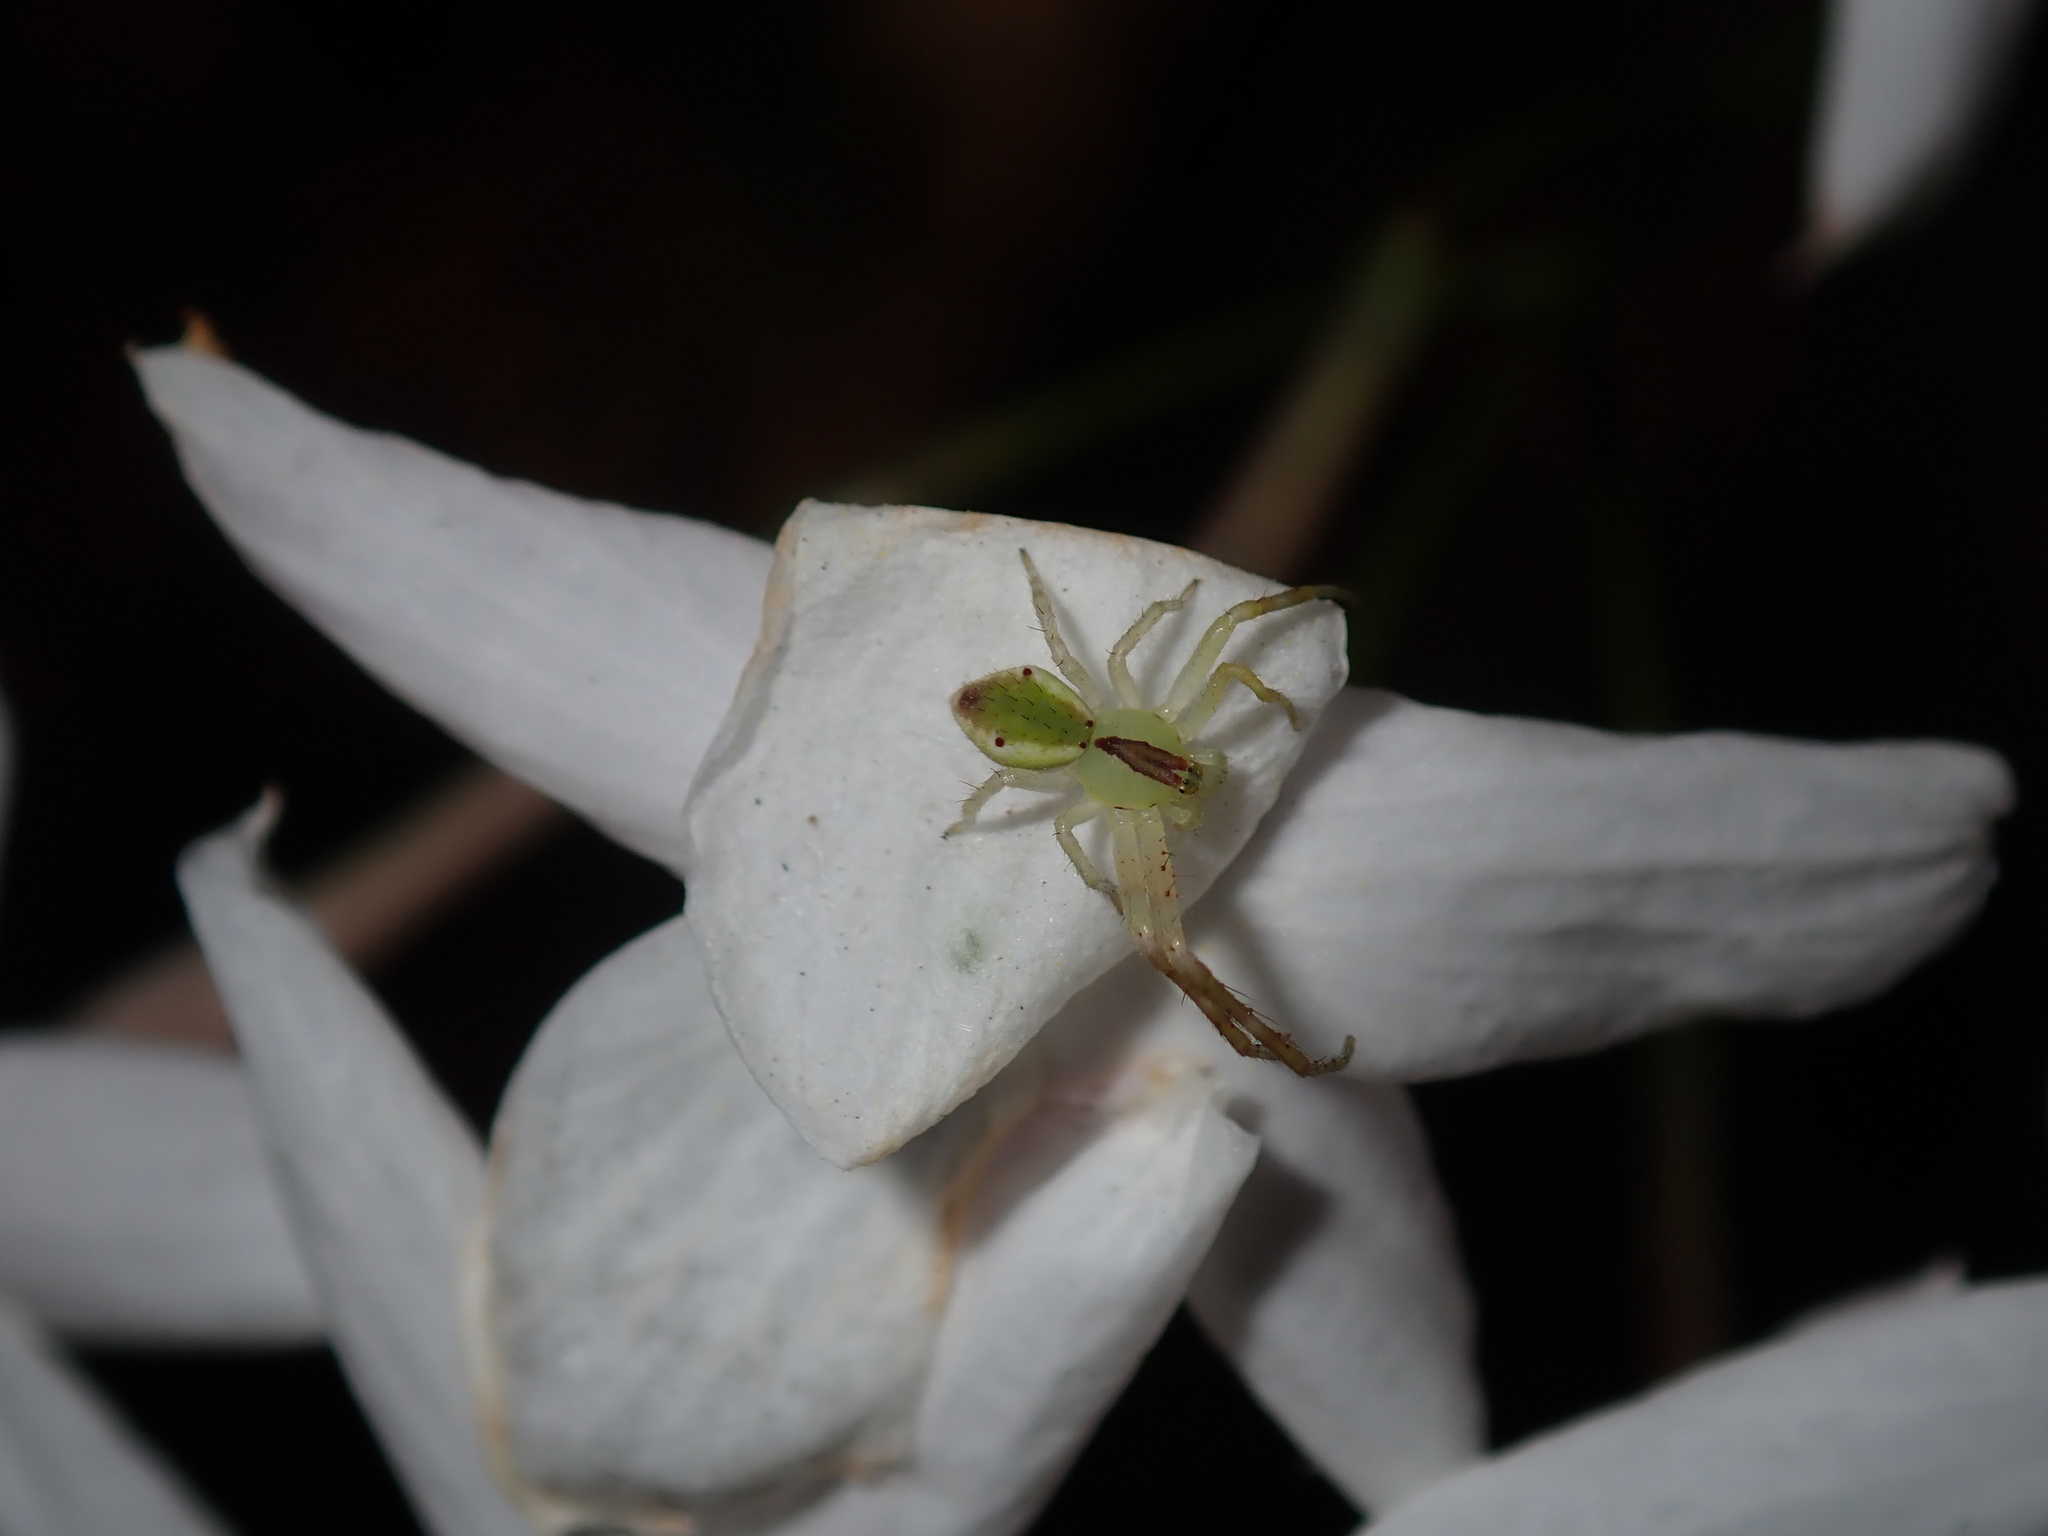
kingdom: Animalia
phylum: Arthropoda
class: Arachnida
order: Araneae
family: Thomisidae
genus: Sidymella
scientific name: Sidymella rubrosignata
